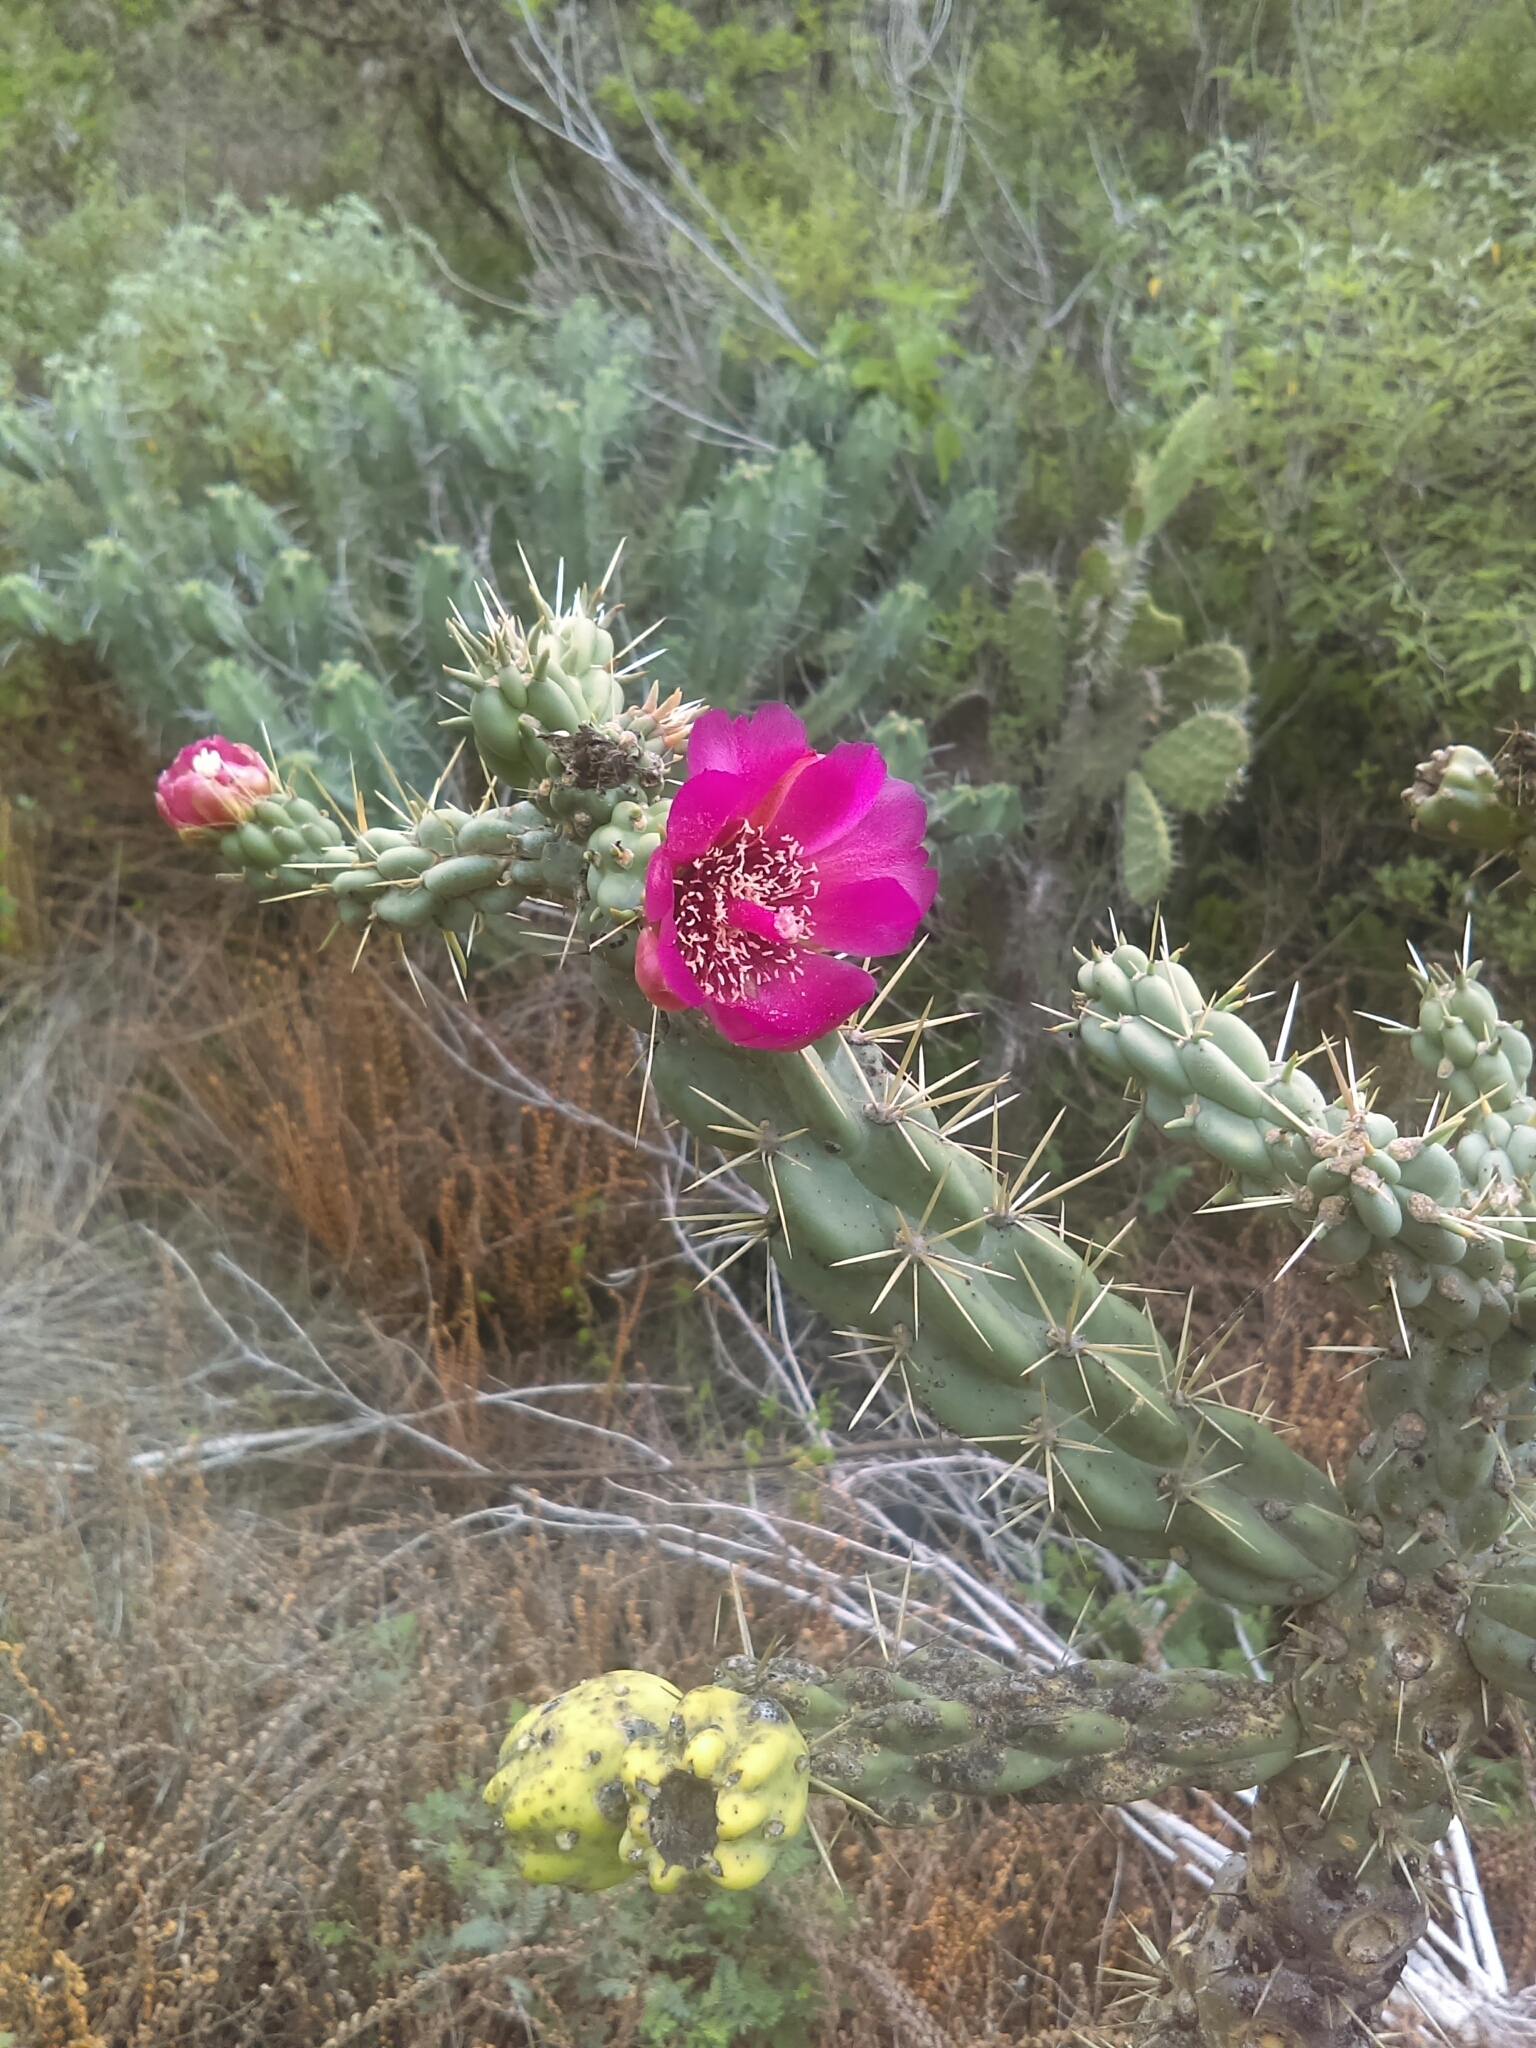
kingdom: Plantae
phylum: Tracheophyta
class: Magnoliopsida
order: Caryophyllales
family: Cactaceae
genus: Cylindropuntia
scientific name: Cylindropuntia imbricata
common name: Candelabrum cactus
